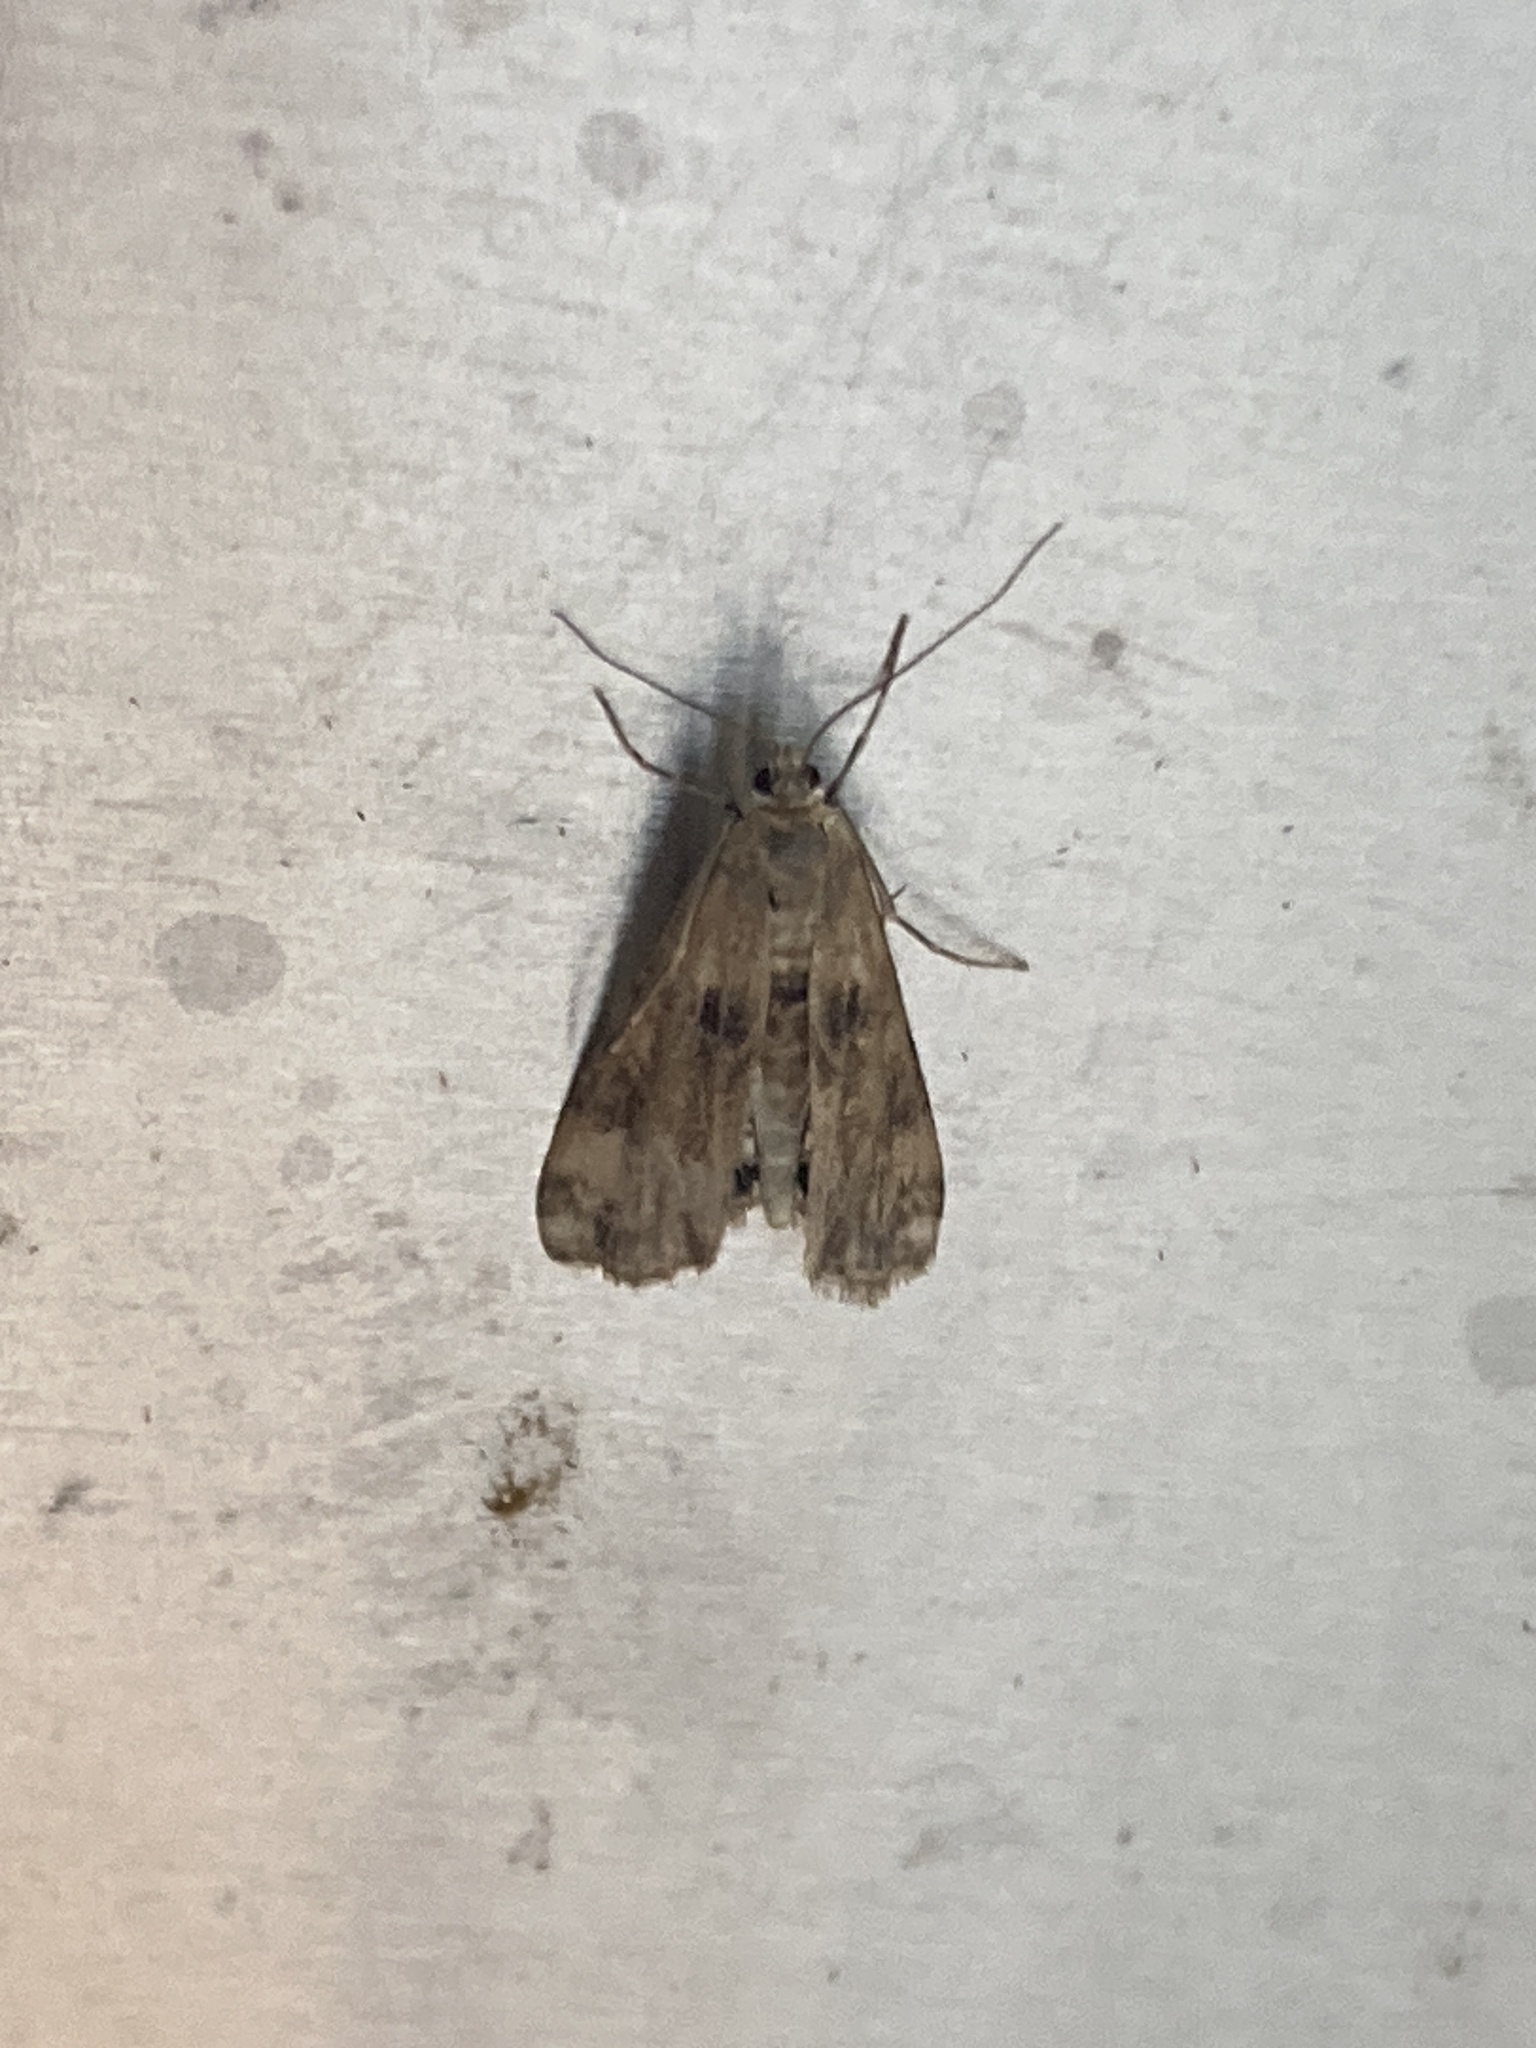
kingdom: Animalia
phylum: Arthropoda
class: Insecta
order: Lepidoptera
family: Crambidae
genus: Cataclysta
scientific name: Cataclysta lemnata
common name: Small china-mark
